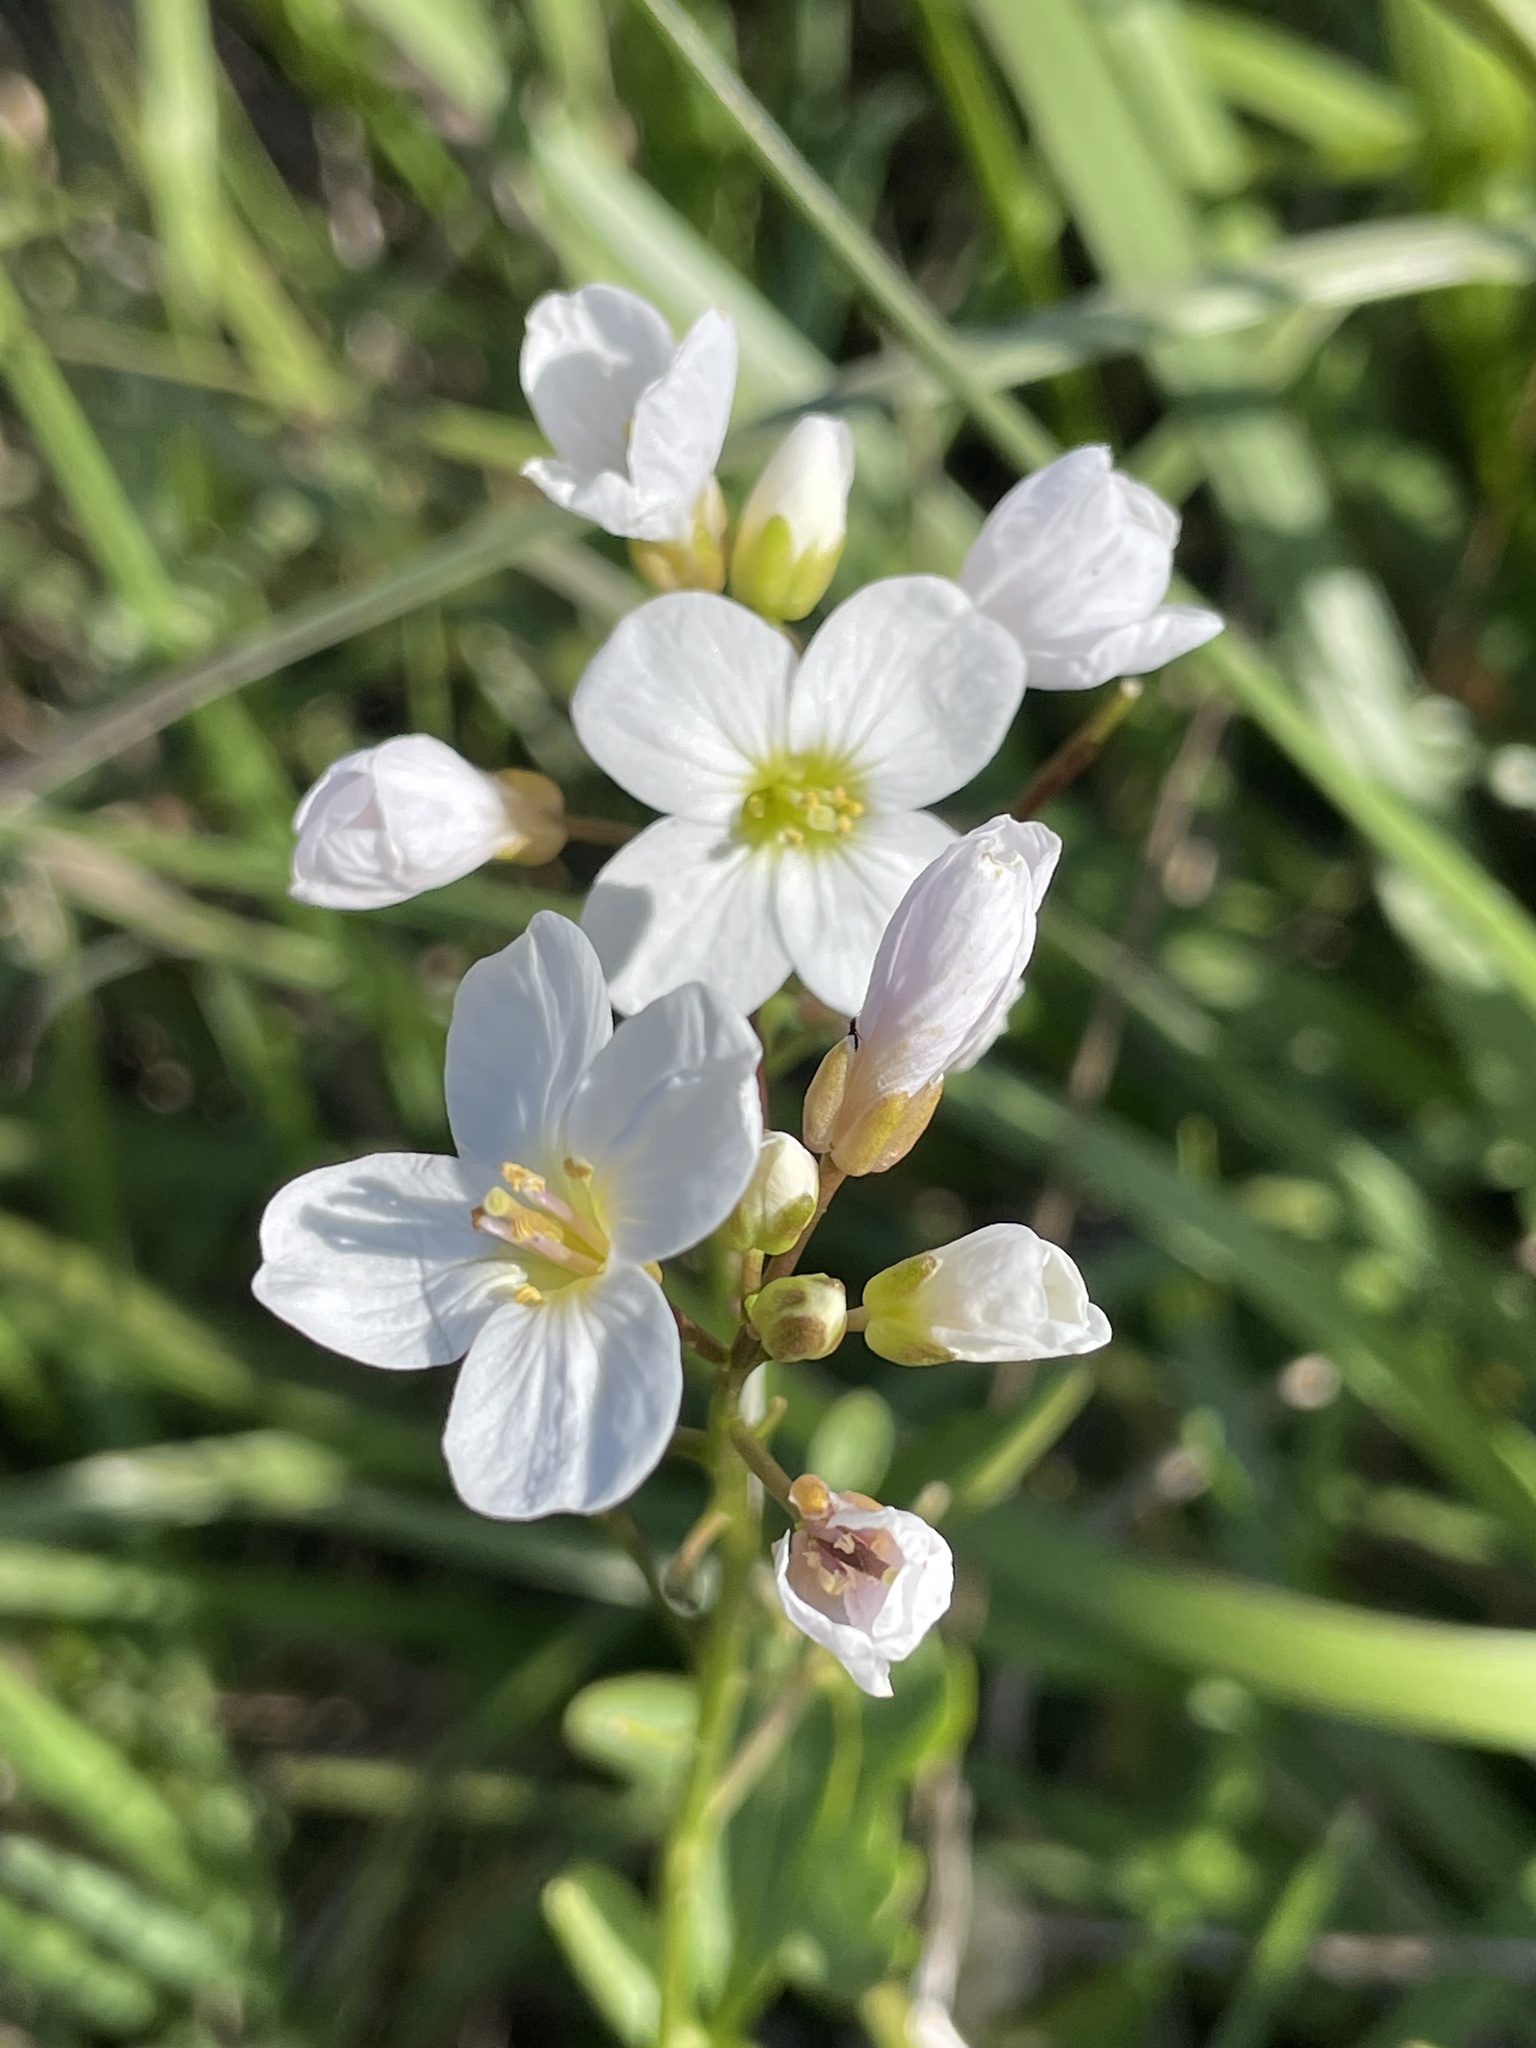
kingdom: Plantae
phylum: Tracheophyta
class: Magnoliopsida
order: Brassicales
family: Brassicaceae
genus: Cardamine
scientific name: Cardamine californica
